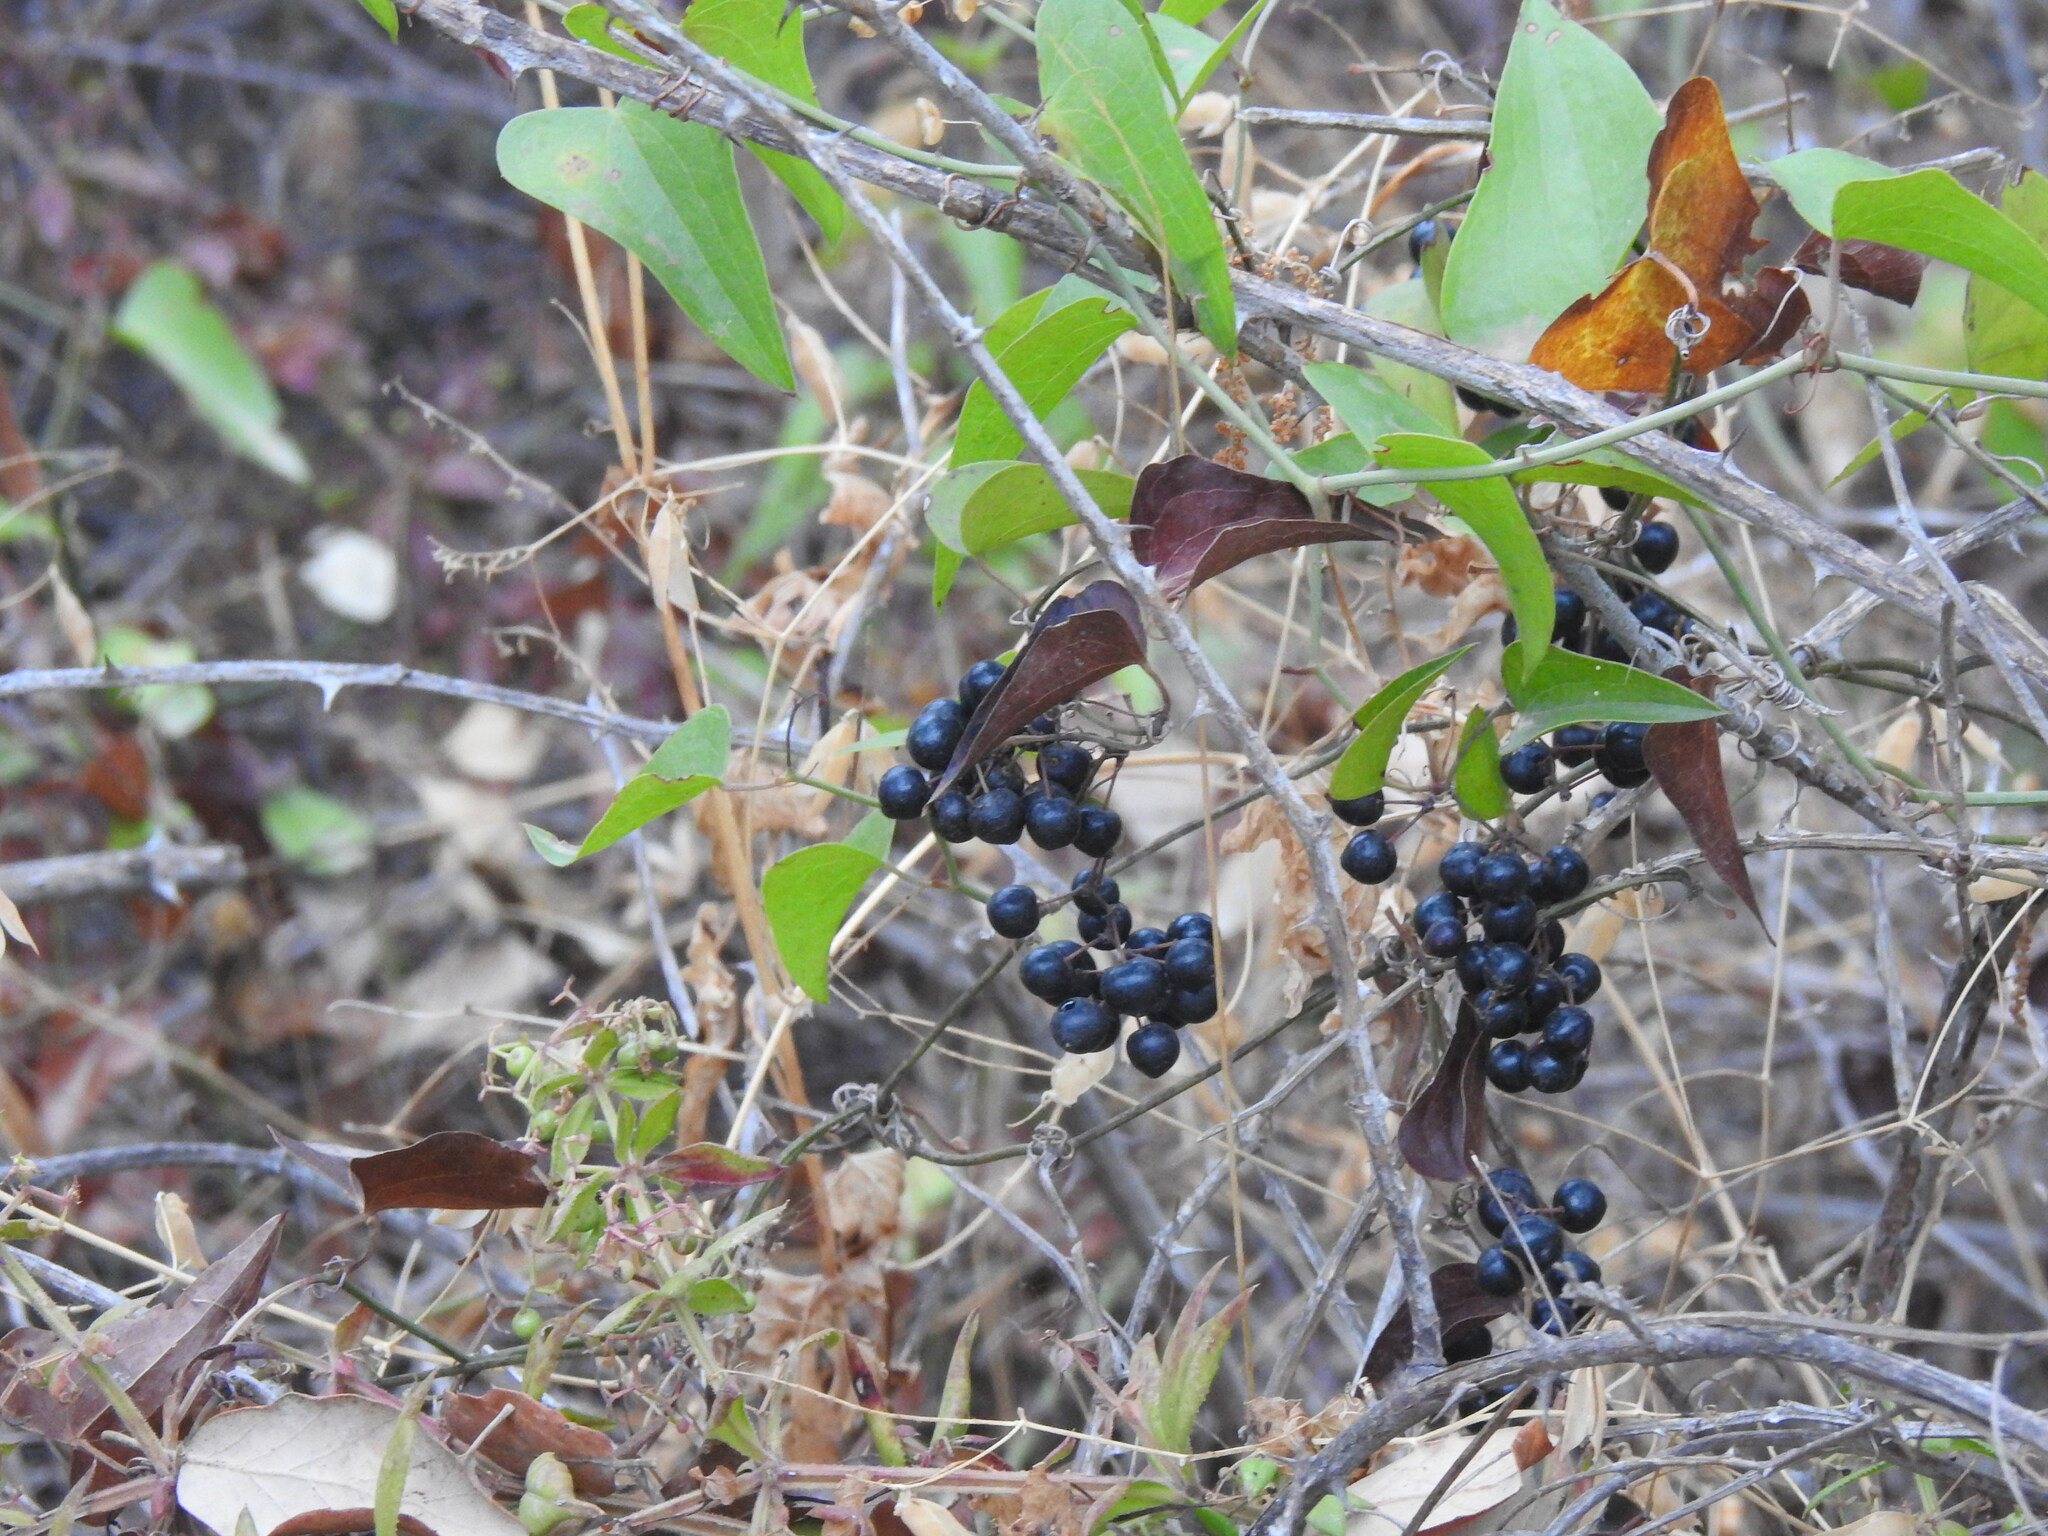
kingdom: Plantae
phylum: Tracheophyta
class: Liliopsida
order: Liliales
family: Smilacaceae
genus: Smilax
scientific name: Smilax aspera
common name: Common smilax
